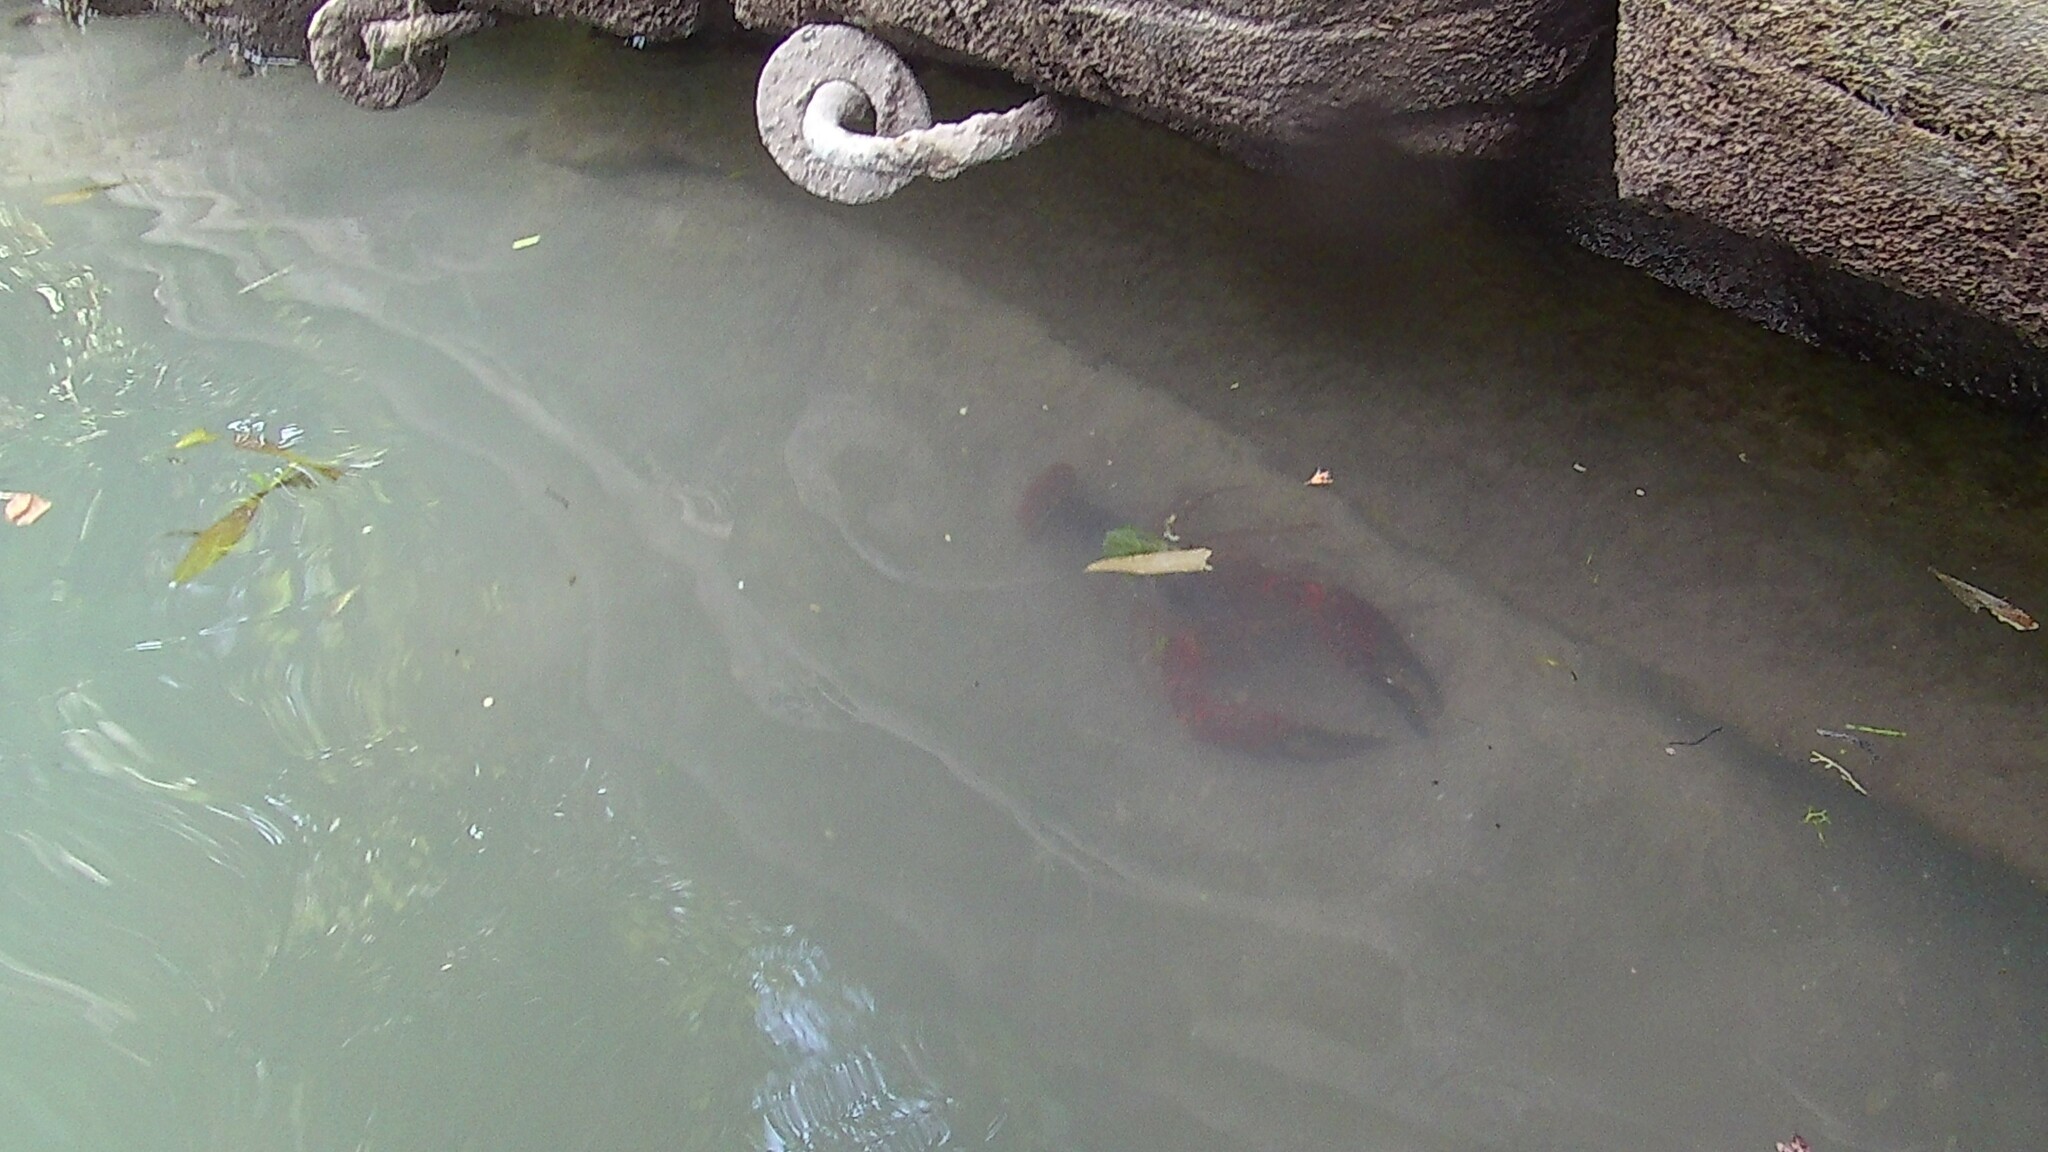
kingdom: Animalia
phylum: Arthropoda
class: Malacostraca
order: Decapoda
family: Cambaridae
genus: Procambarus
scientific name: Procambarus clarkii
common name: Red swamp crayfish
